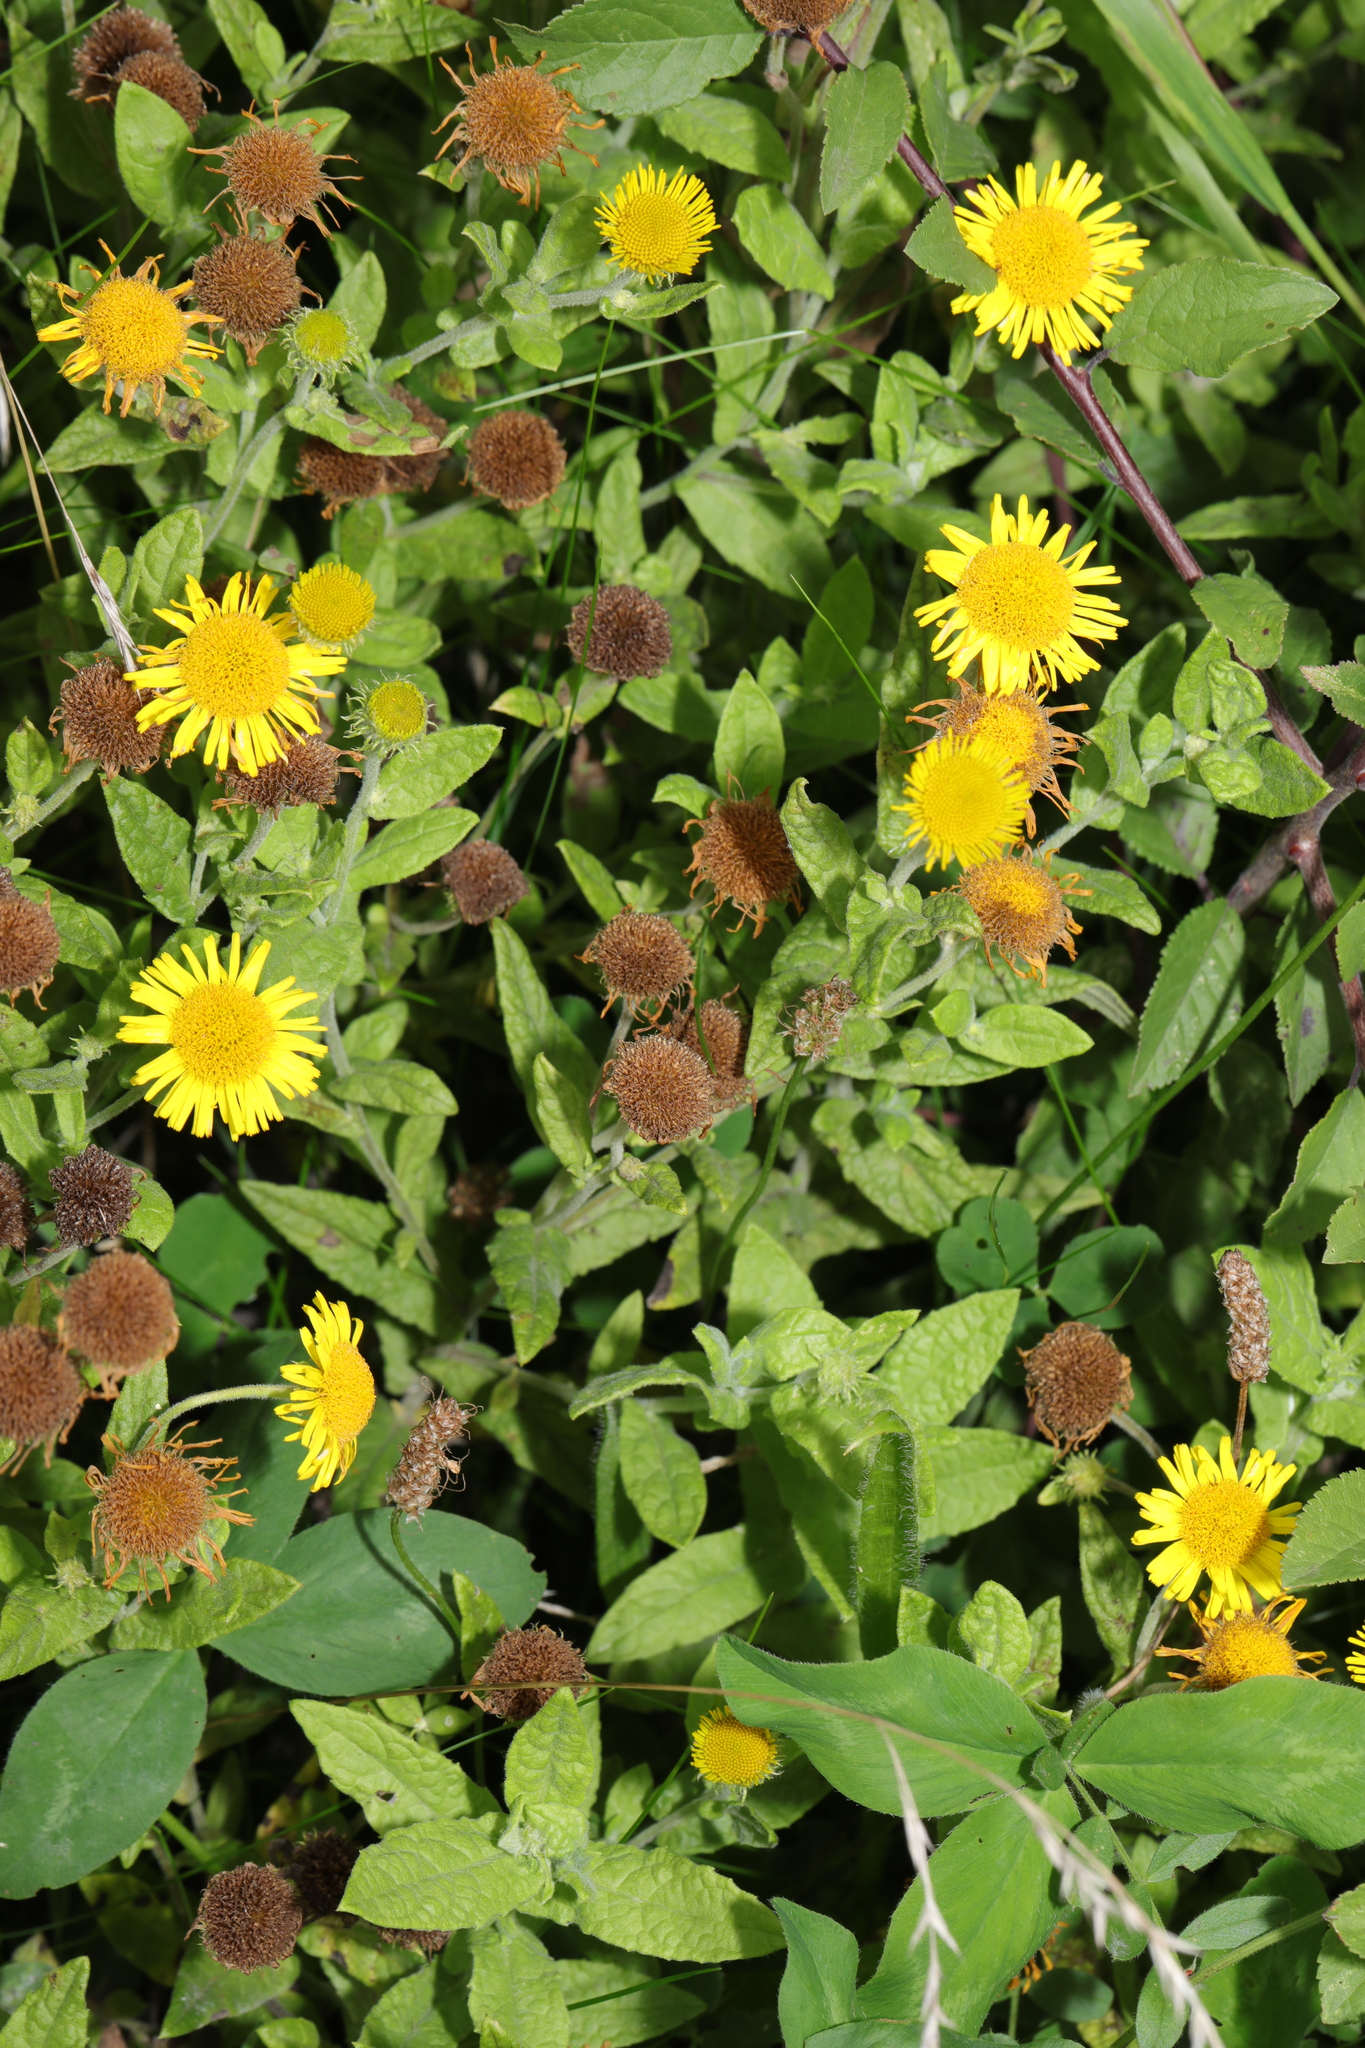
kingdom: Plantae
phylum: Tracheophyta
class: Magnoliopsida
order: Asterales
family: Asteraceae
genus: Pulicaria
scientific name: Pulicaria dysenterica
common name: Common fleabane
